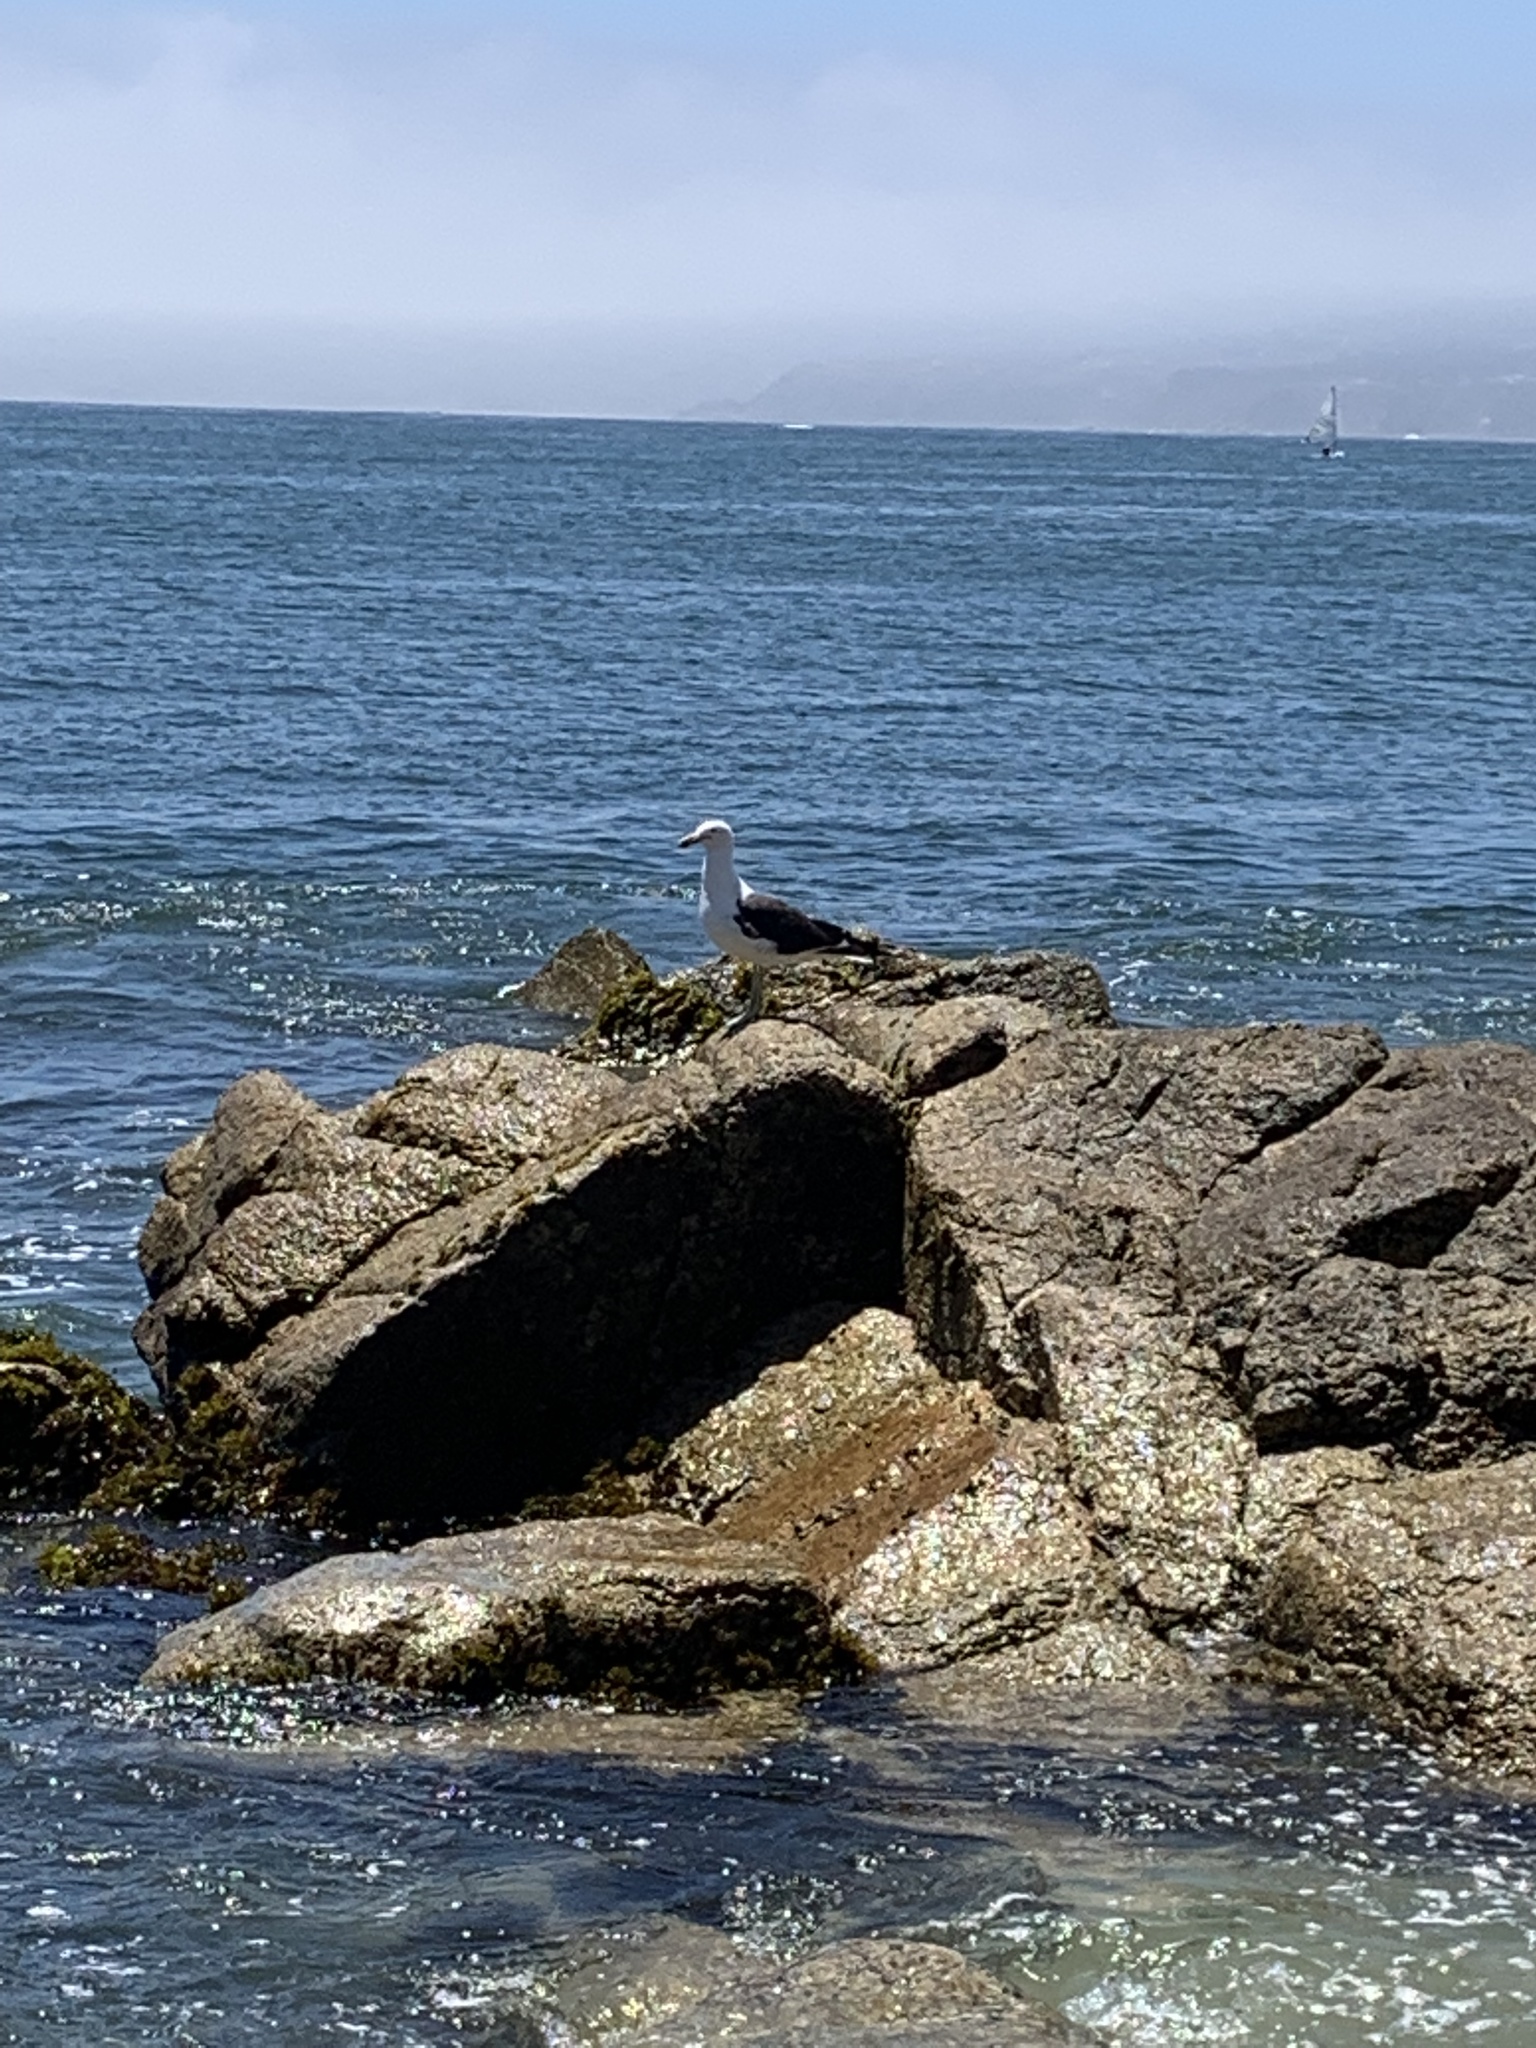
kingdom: Animalia
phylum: Chordata
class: Aves
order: Charadriiformes
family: Laridae
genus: Larus
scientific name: Larus dominicanus
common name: Kelp gull
